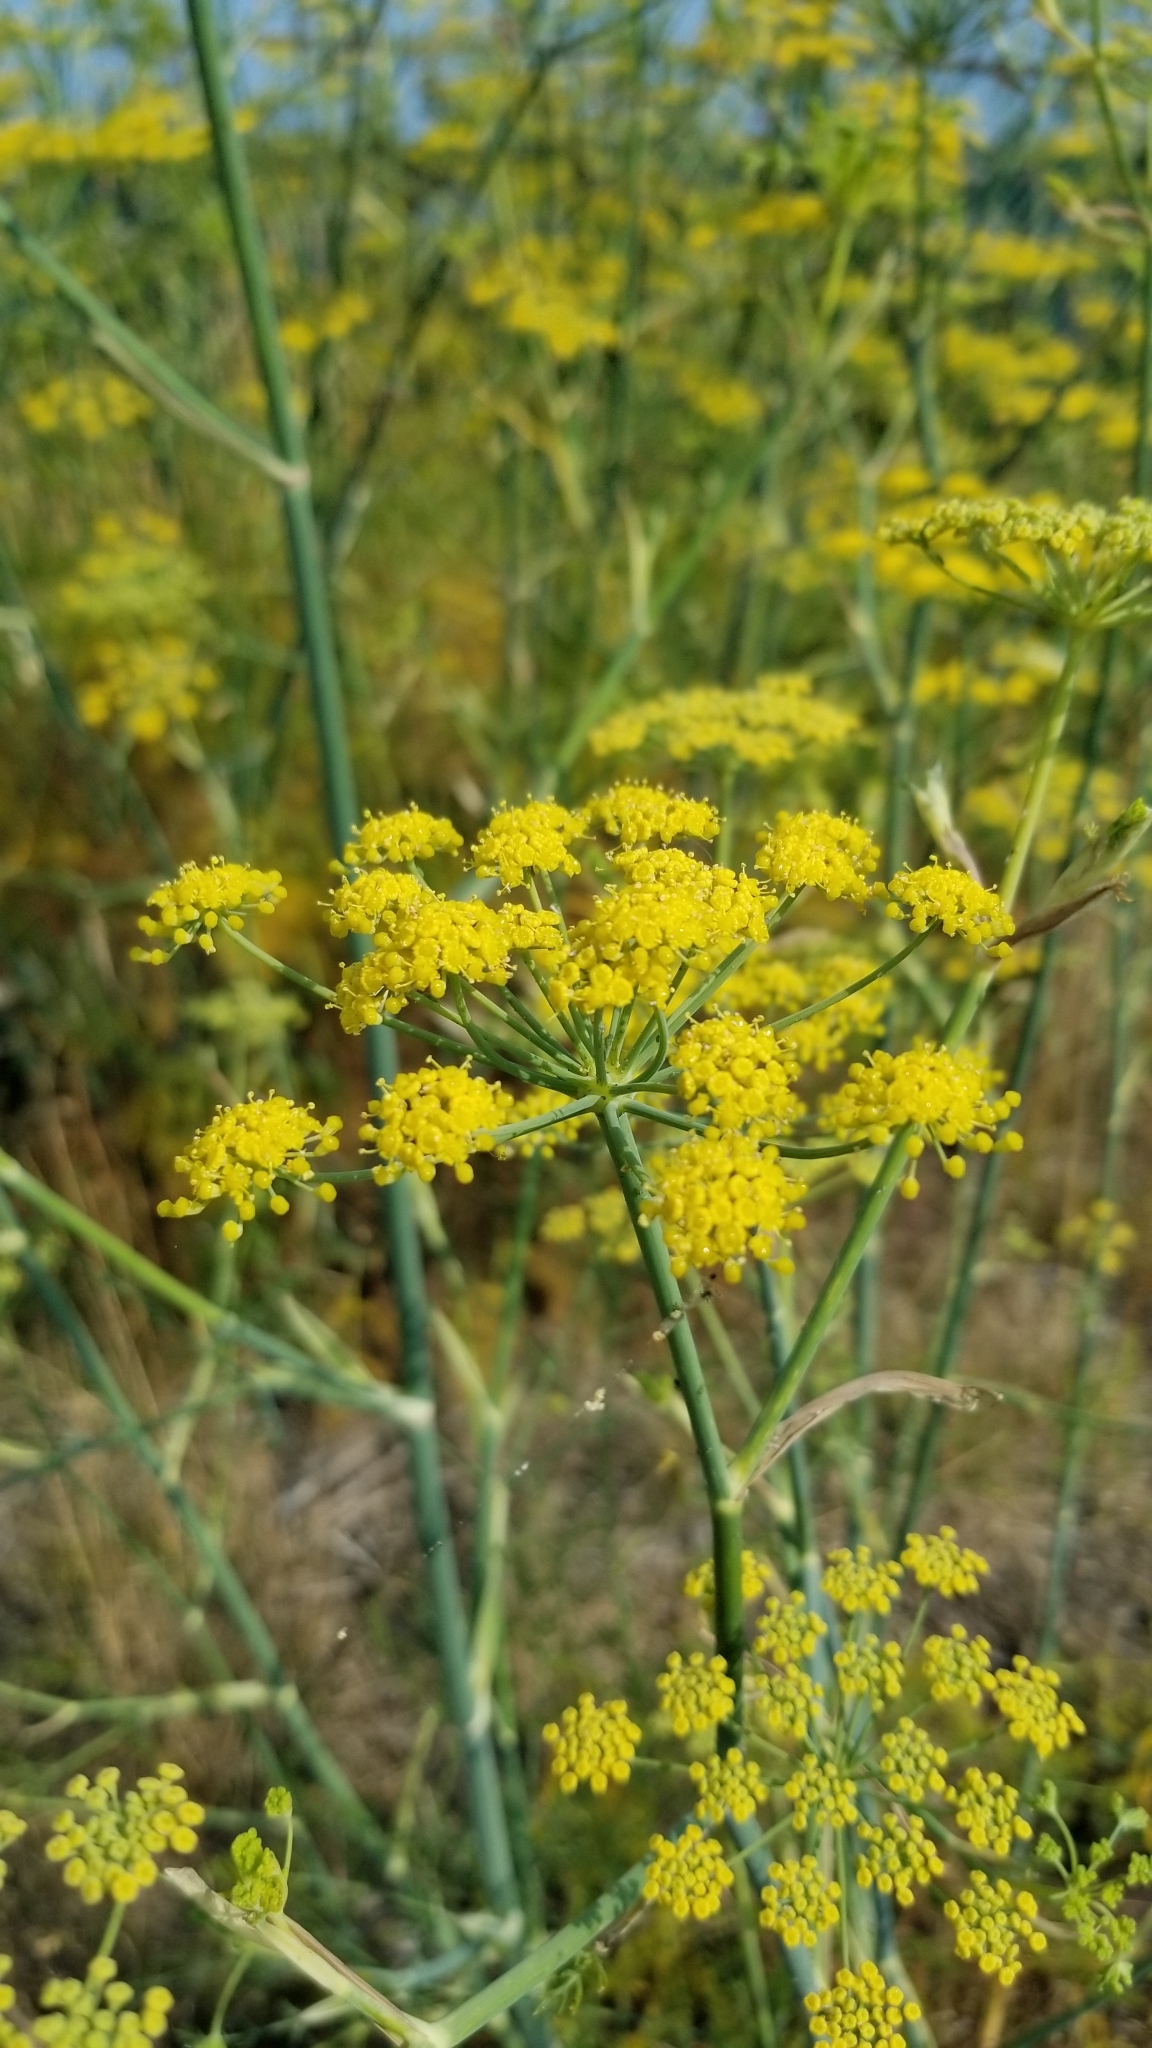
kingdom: Plantae
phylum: Tracheophyta
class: Magnoliopsida
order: Apiales
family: Apiaceae
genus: Foeniculum
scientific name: Foeniculum vulgare
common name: Fennel
